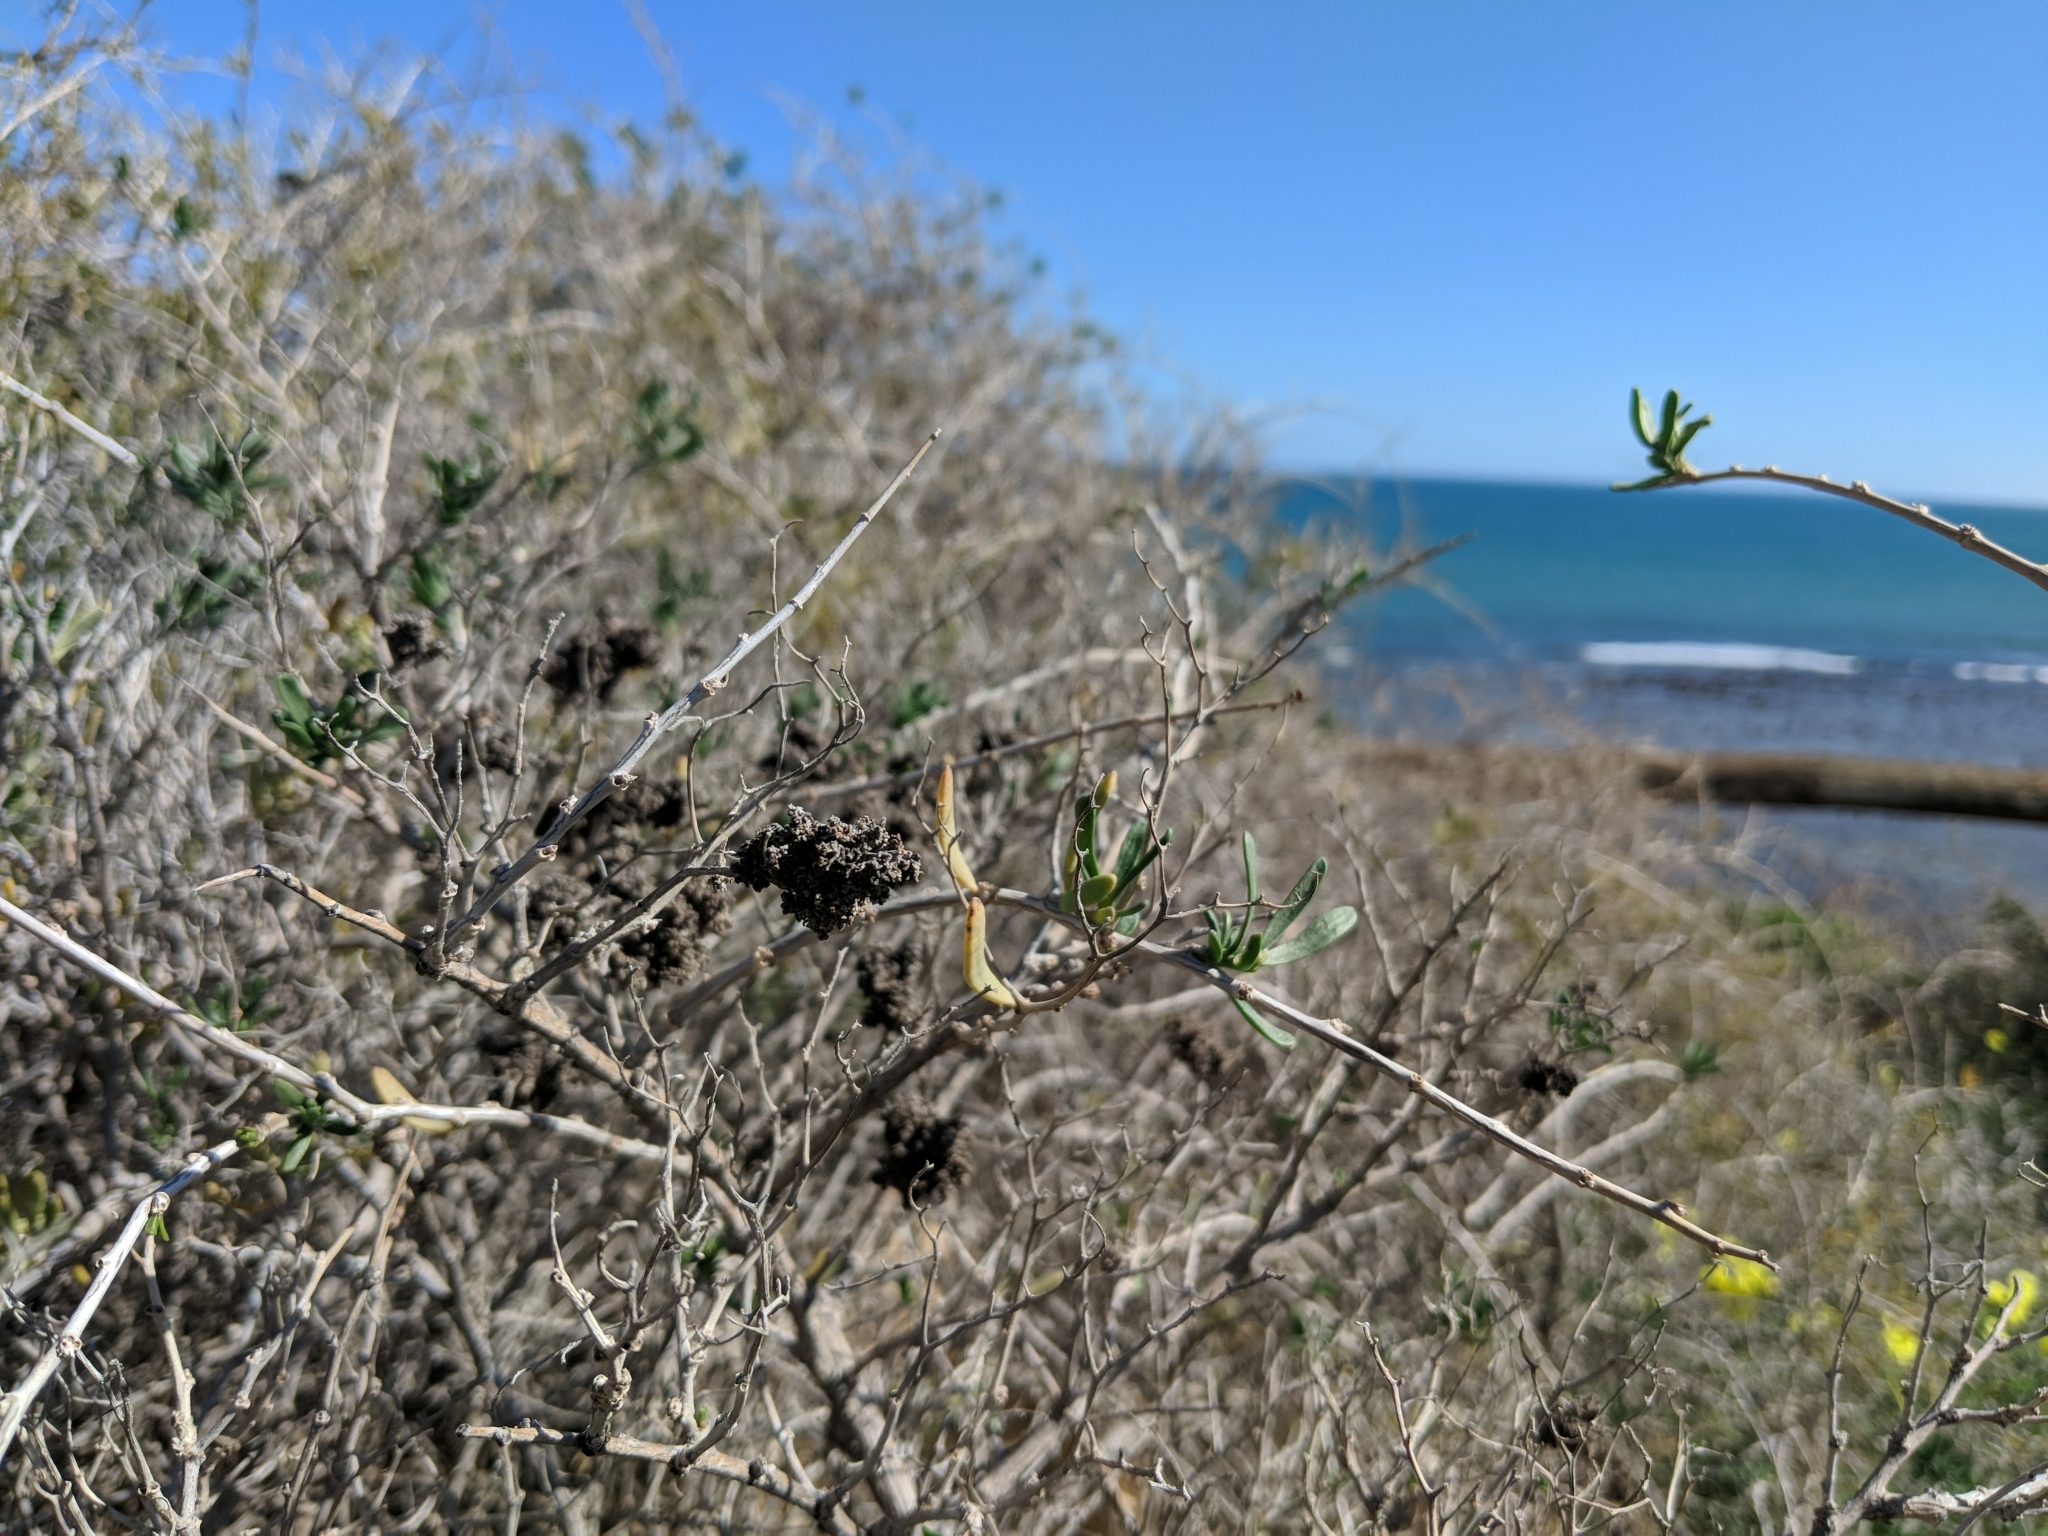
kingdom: Plantae
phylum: Tracheophyta
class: Magnoliopsida
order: Sapindales
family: Nitrariaceae
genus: Nitraria
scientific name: Nitraria billardierei
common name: Dillonbush
